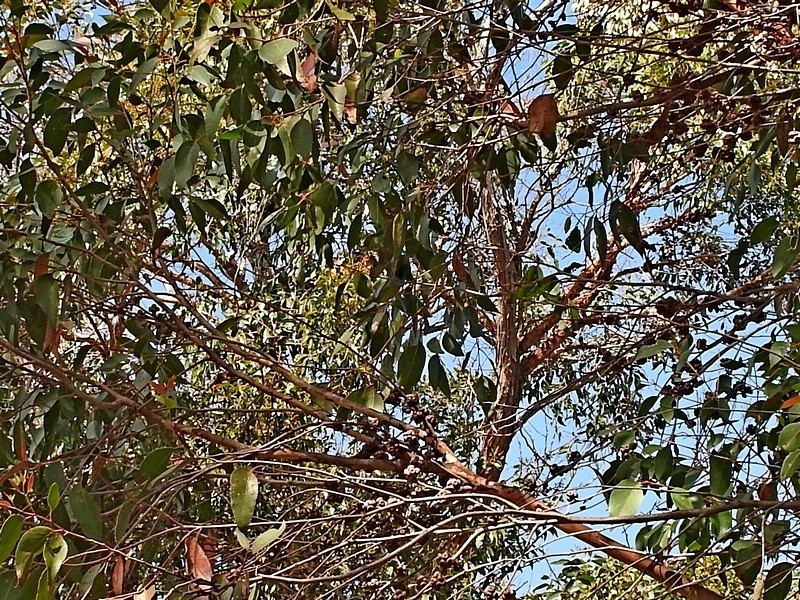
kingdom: Plantae
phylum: Tracheophyta
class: Magnoliopsida
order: Myrtales
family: Myrtaceae
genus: Eucalyptus
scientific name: Eucalyptus baxteri
